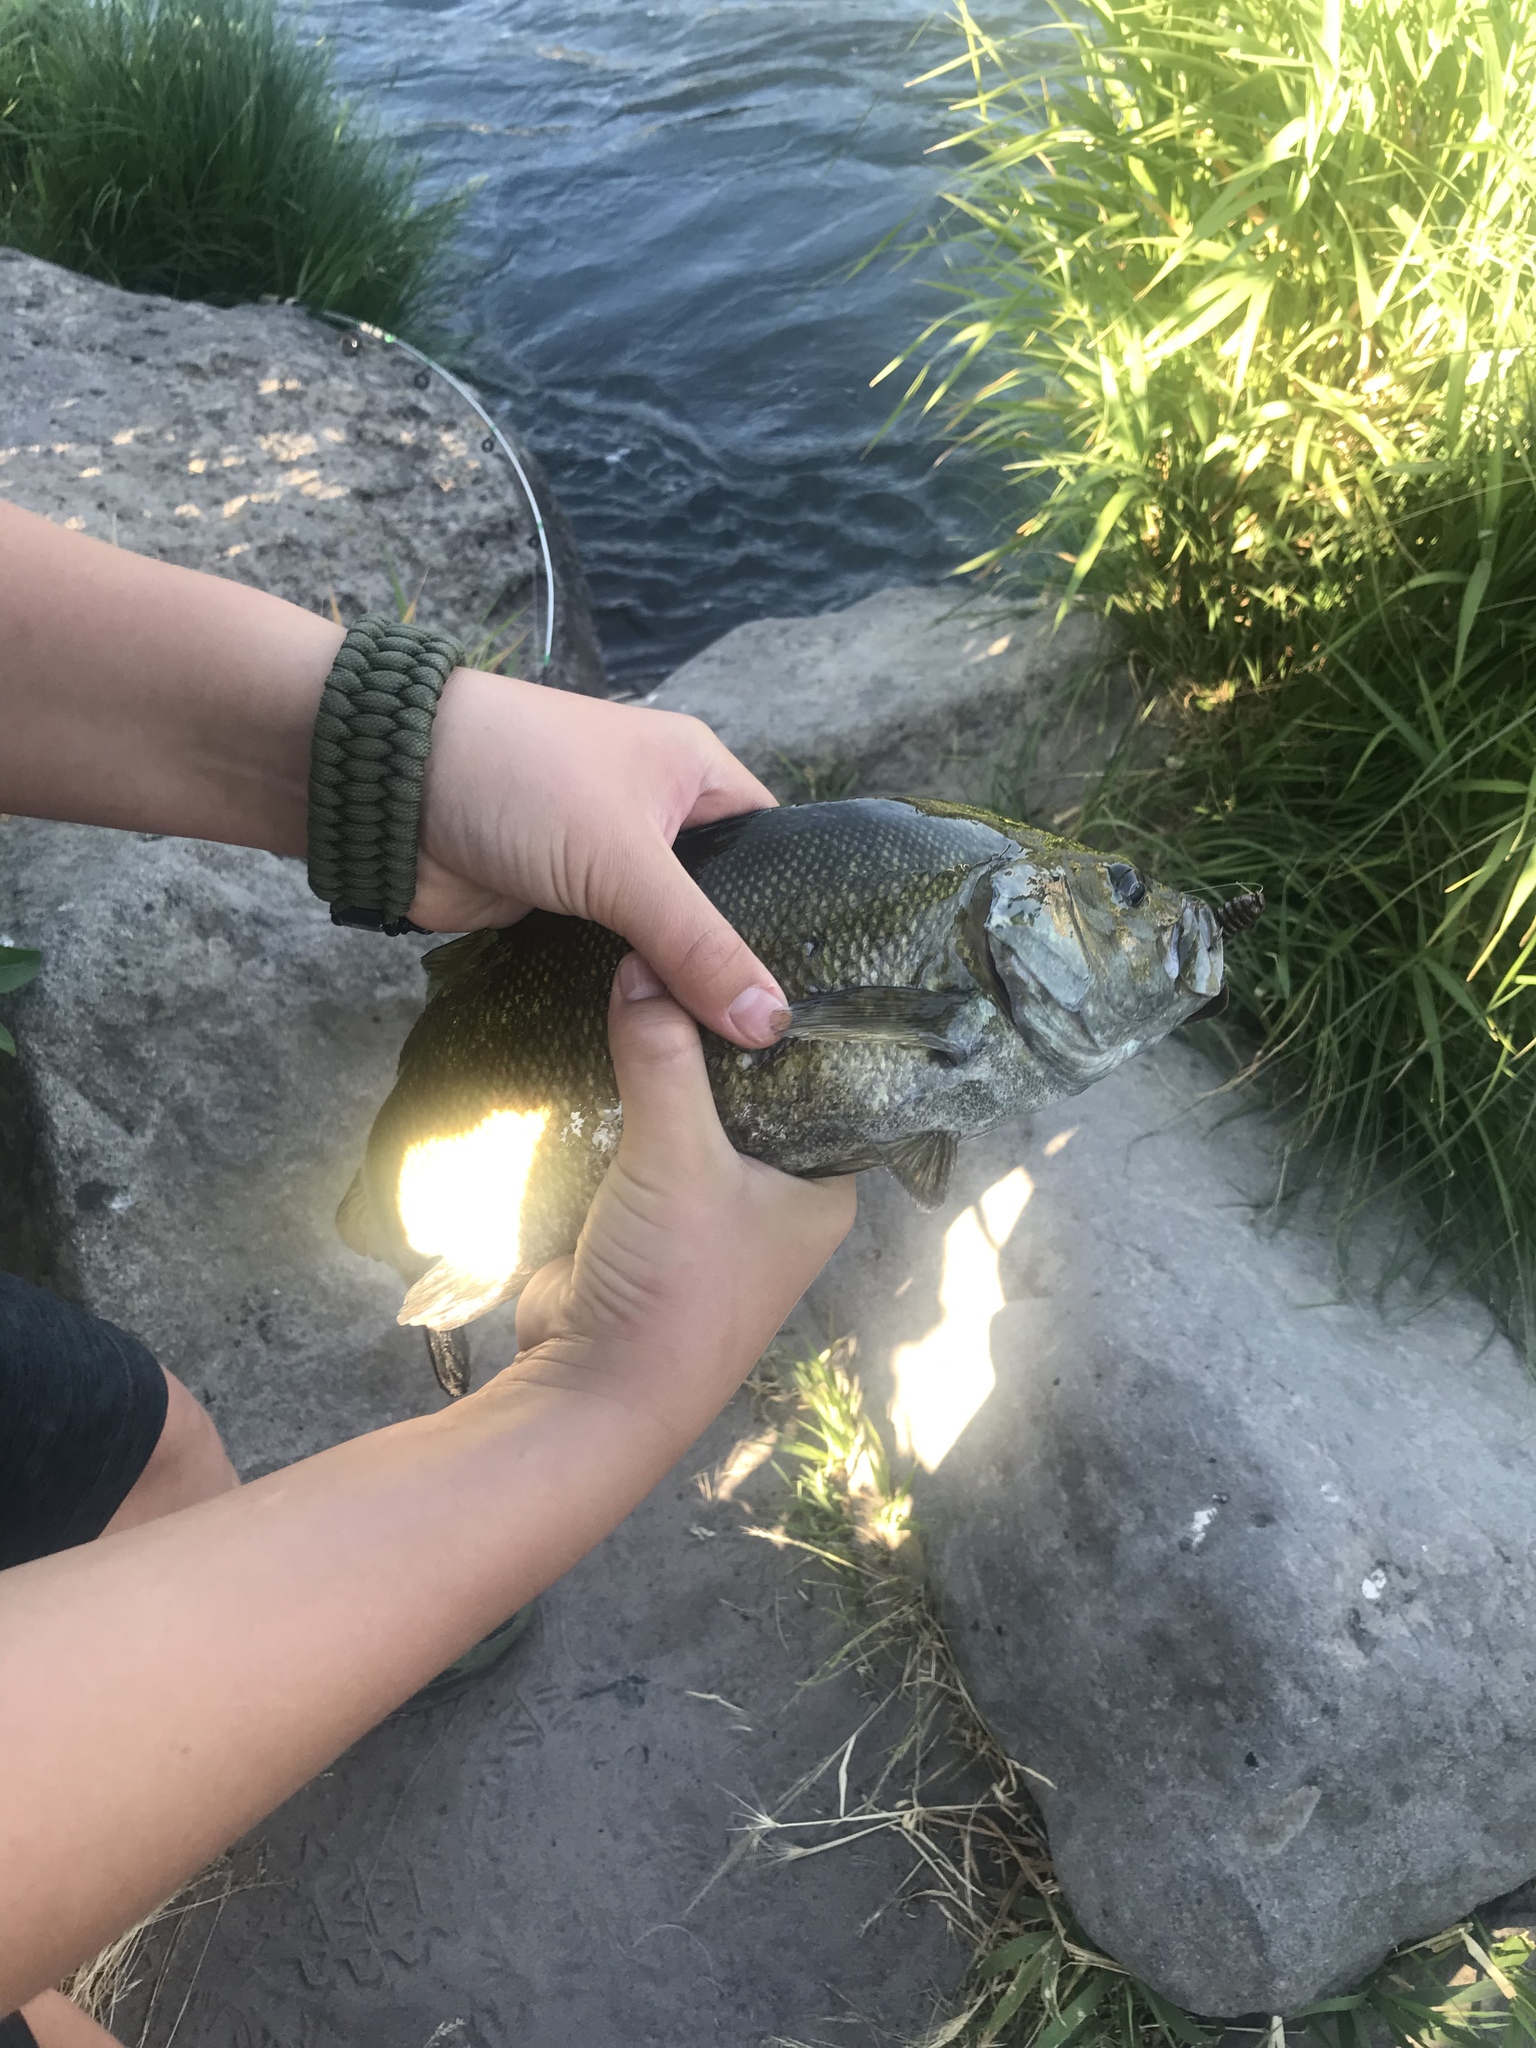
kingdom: Animalia
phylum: Chordata
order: Perciformes
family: Centrarchidae
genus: Micropterus
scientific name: Micropterus dolomieu
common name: Smallmouth bass
